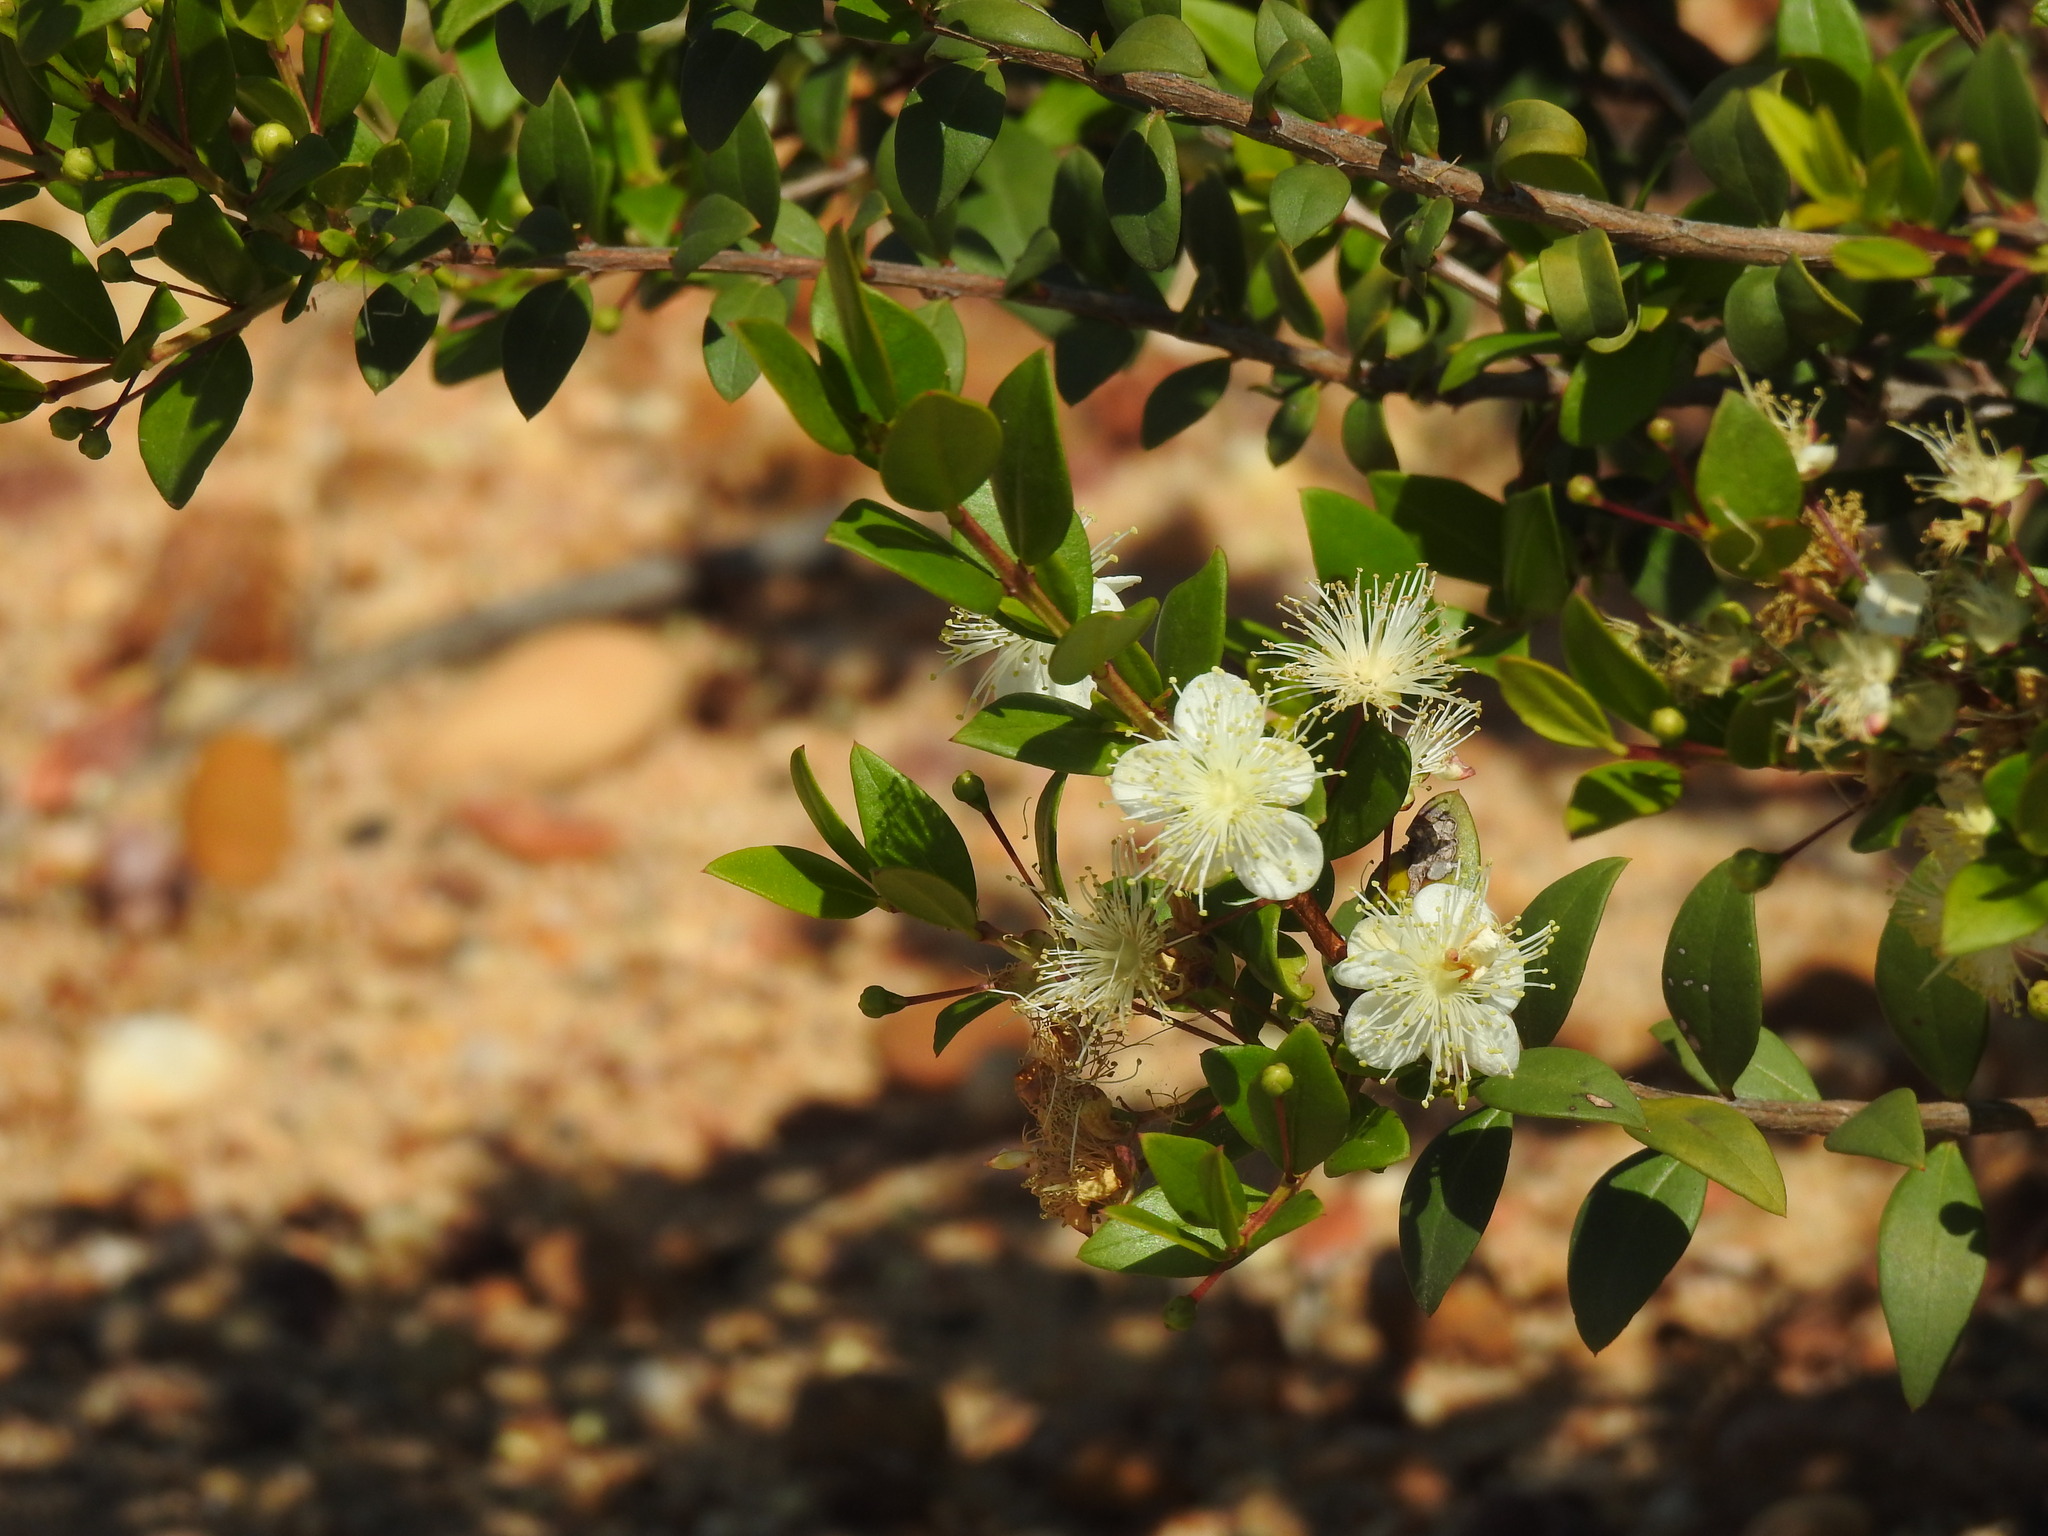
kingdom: Plantae
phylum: Tracheophyta
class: Magnoliopsida
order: Myrtales
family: Myrtaceae
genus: Myrtus
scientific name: Myrtus communis
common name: Myrtle
